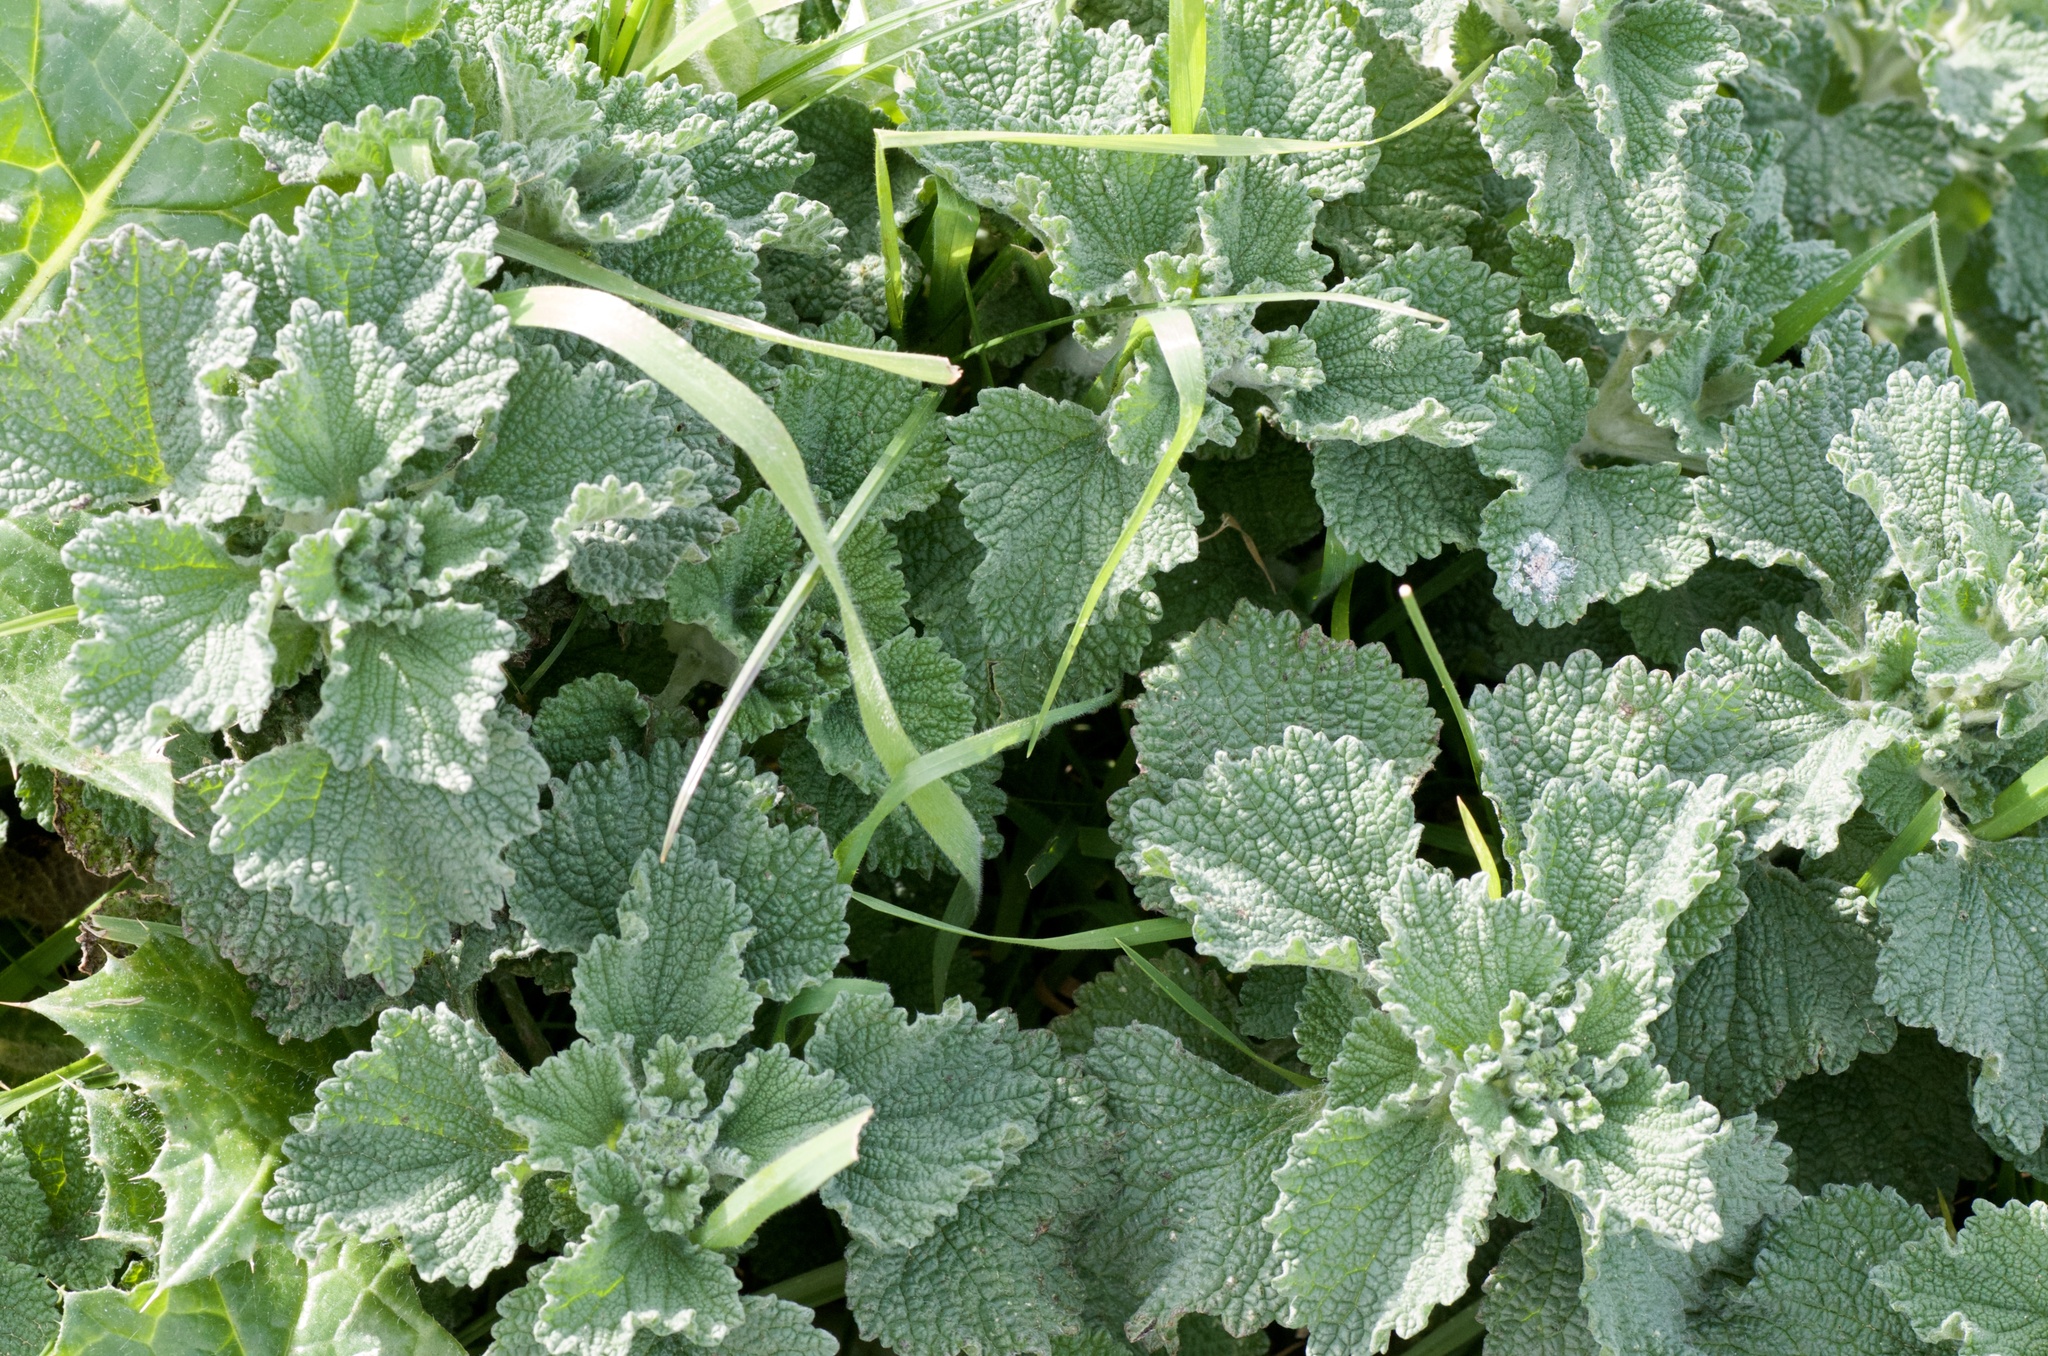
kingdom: Plantae
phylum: Tracheophyta
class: Magnoliopsida
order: Lamiales
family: Lamiaceae
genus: Marrubium
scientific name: Marrubium vulgare
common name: Horehound
